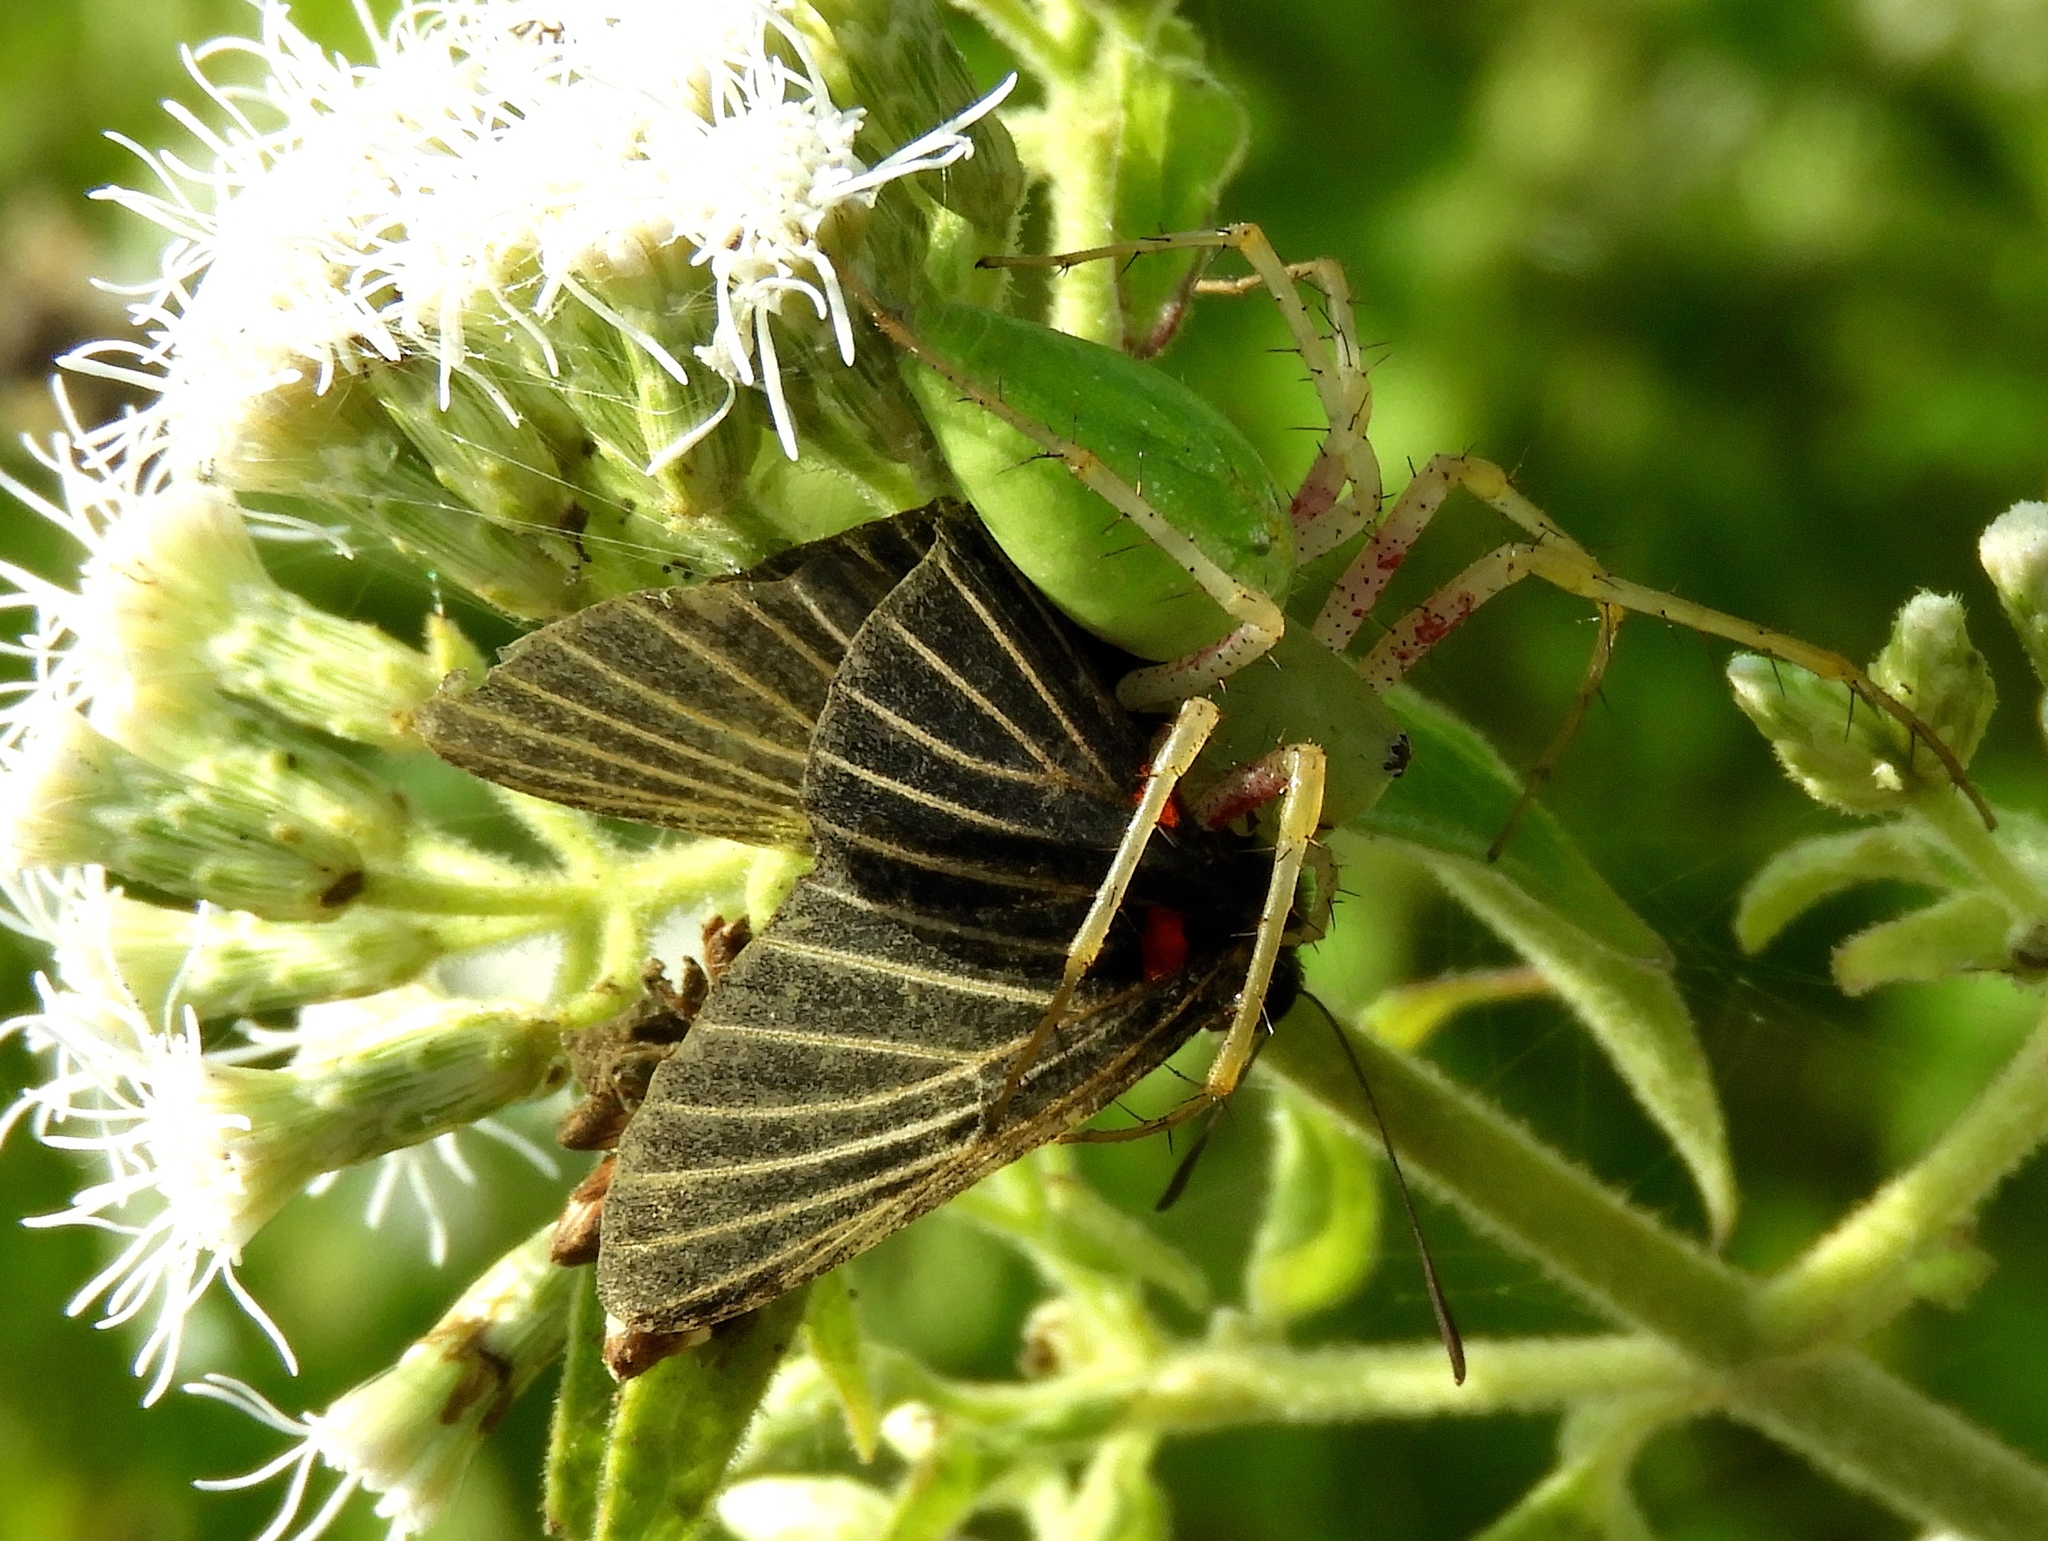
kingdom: Animalia
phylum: Arthropoda
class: Arachnida
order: Araneae
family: Oxyopidae
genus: Peucetia
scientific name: Peucetia
